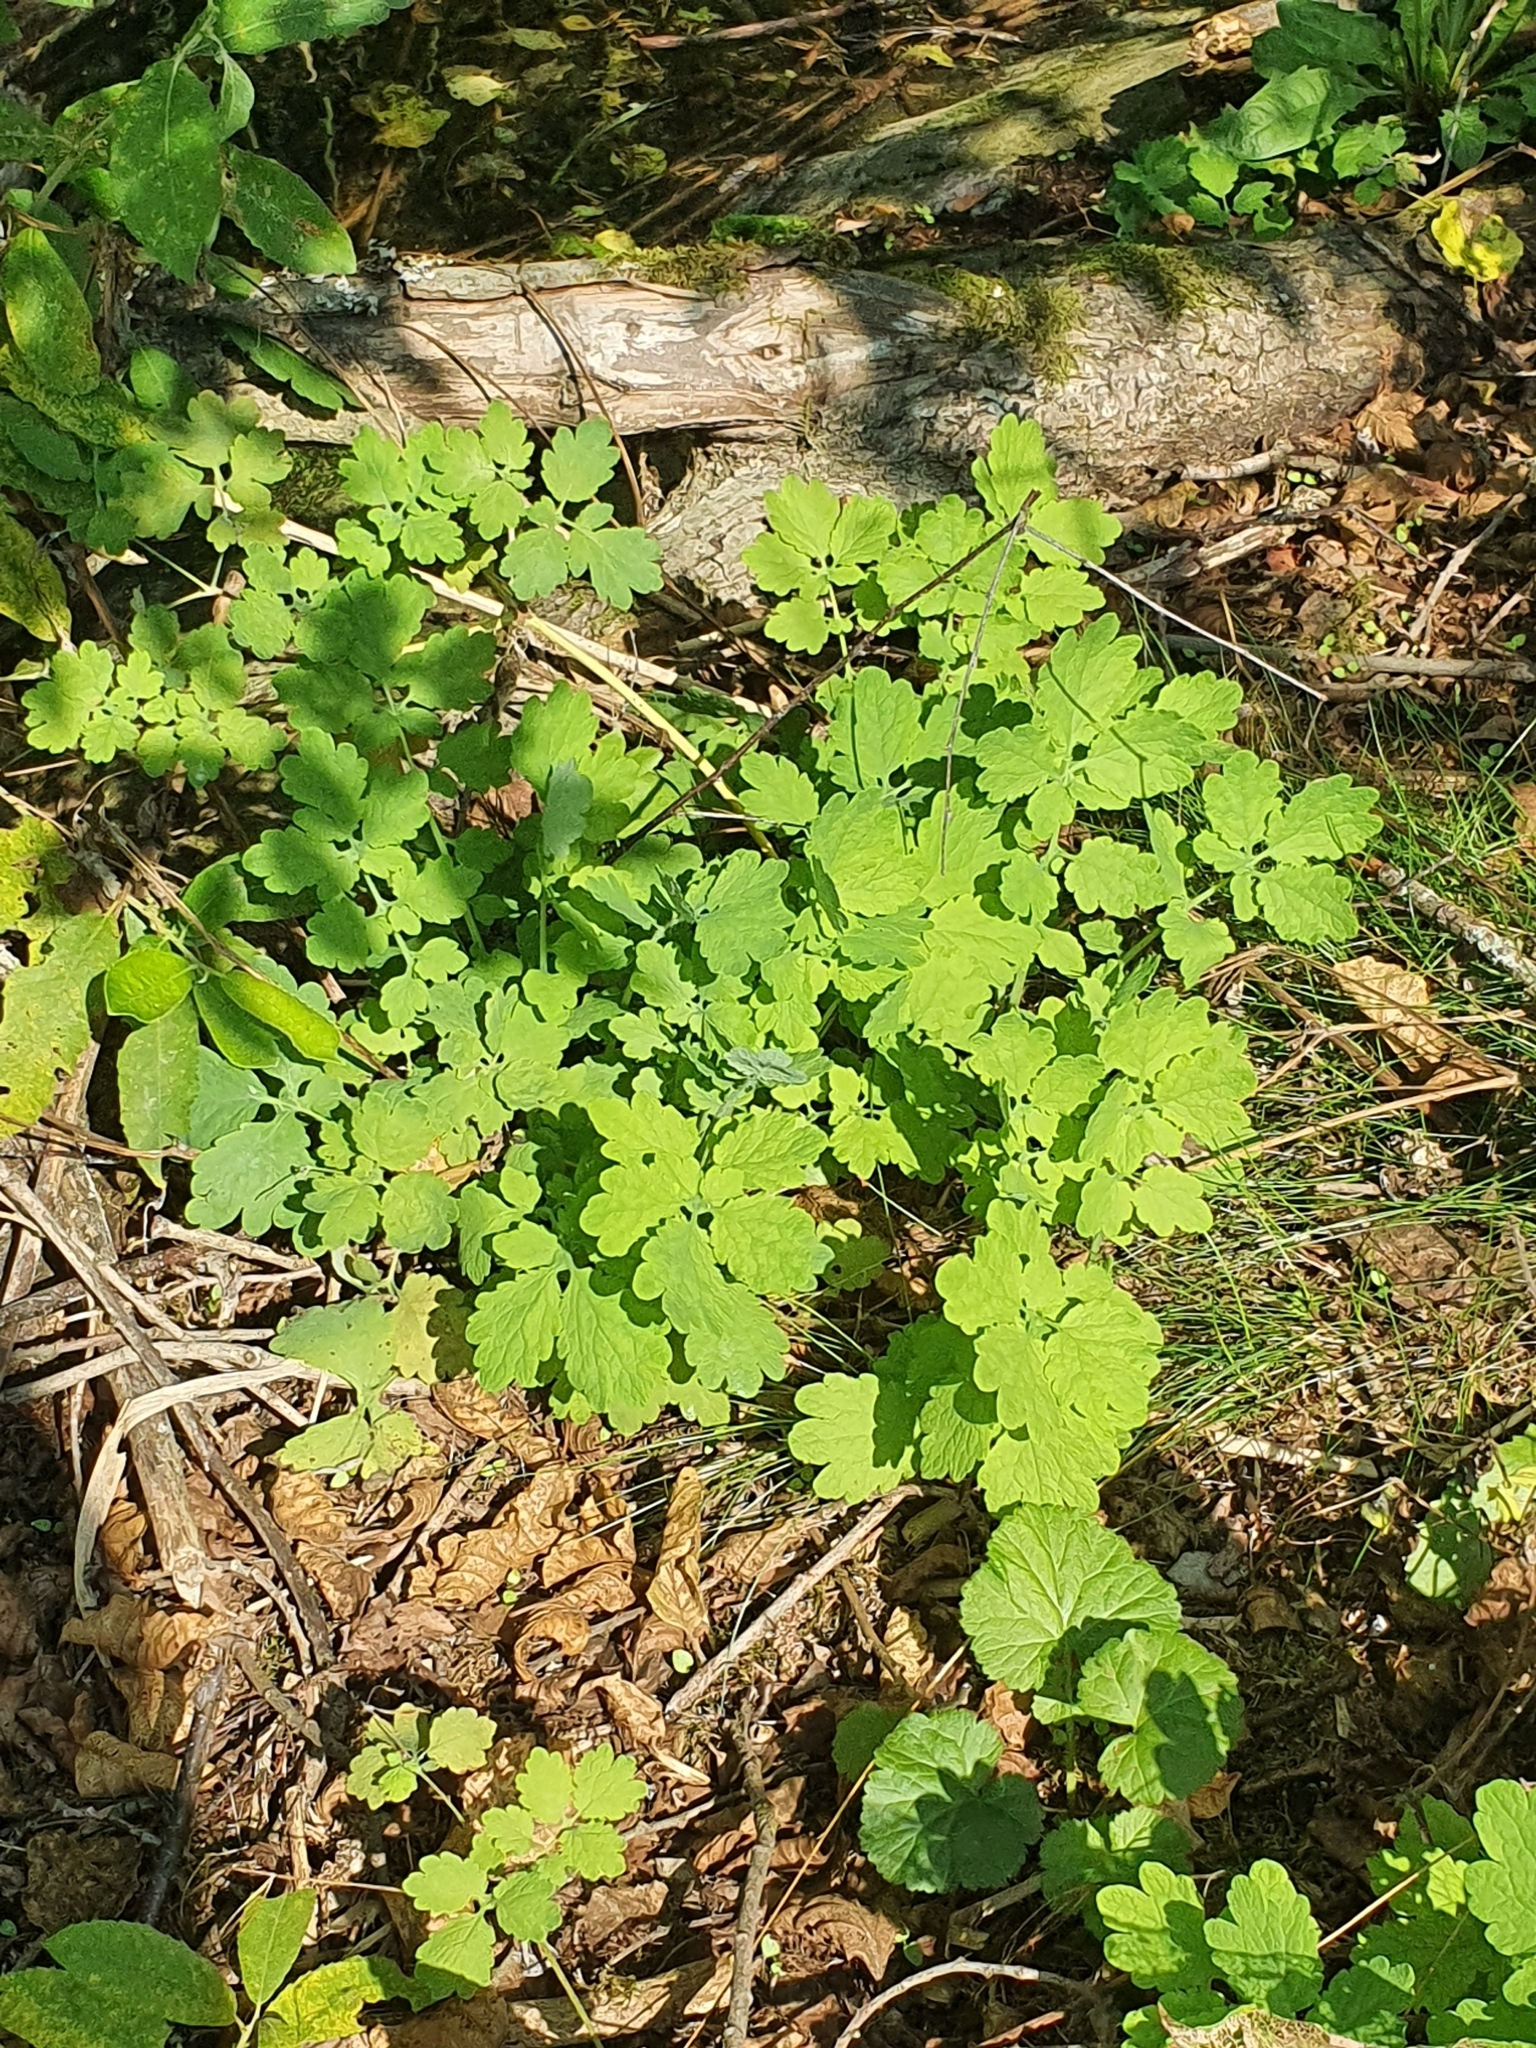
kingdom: Plantae
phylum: Tracheophyta
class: Magnoliopsida
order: Ranunculales
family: Papaveraceae
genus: Chelidonium
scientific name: Chelidonium majus
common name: Greater celandine
